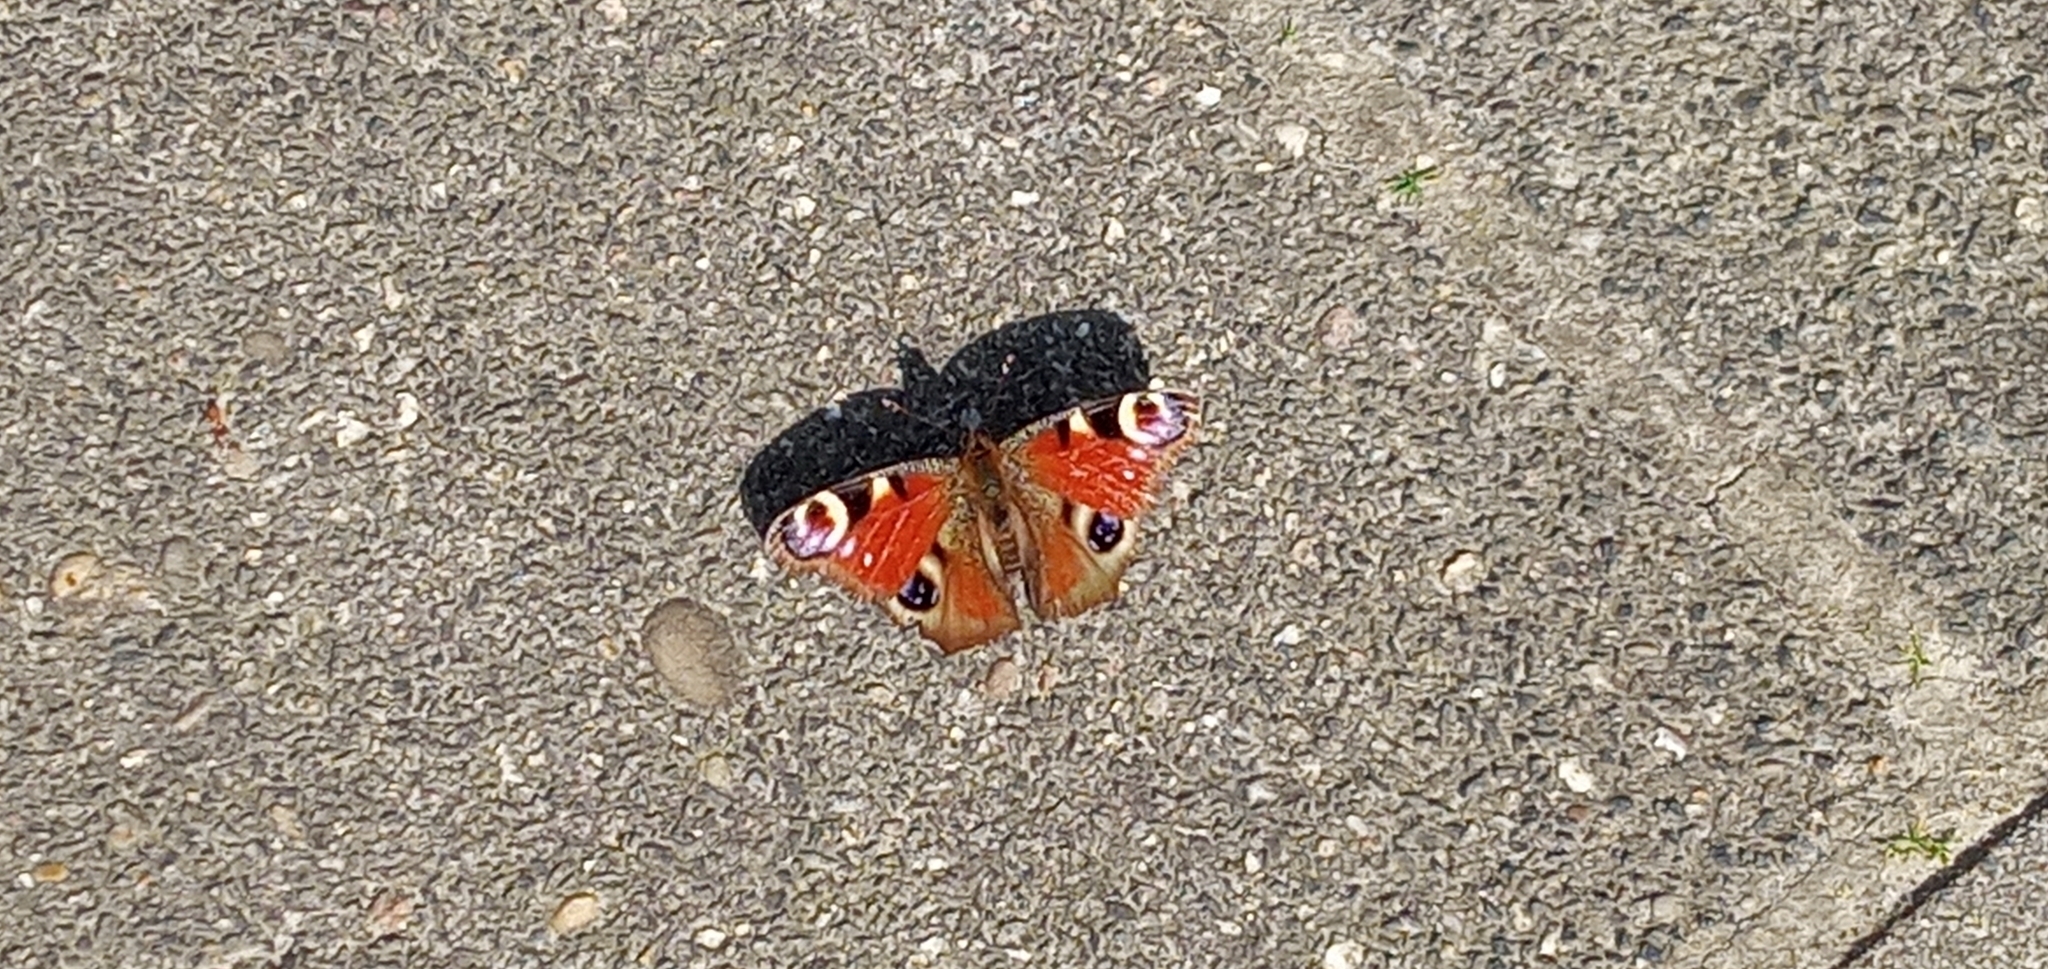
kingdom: Animalia
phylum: Arthropoda
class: Insecta
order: Lepidoptera
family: Nymphalidae
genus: Aglais
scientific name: Aglais io
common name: Peacock
